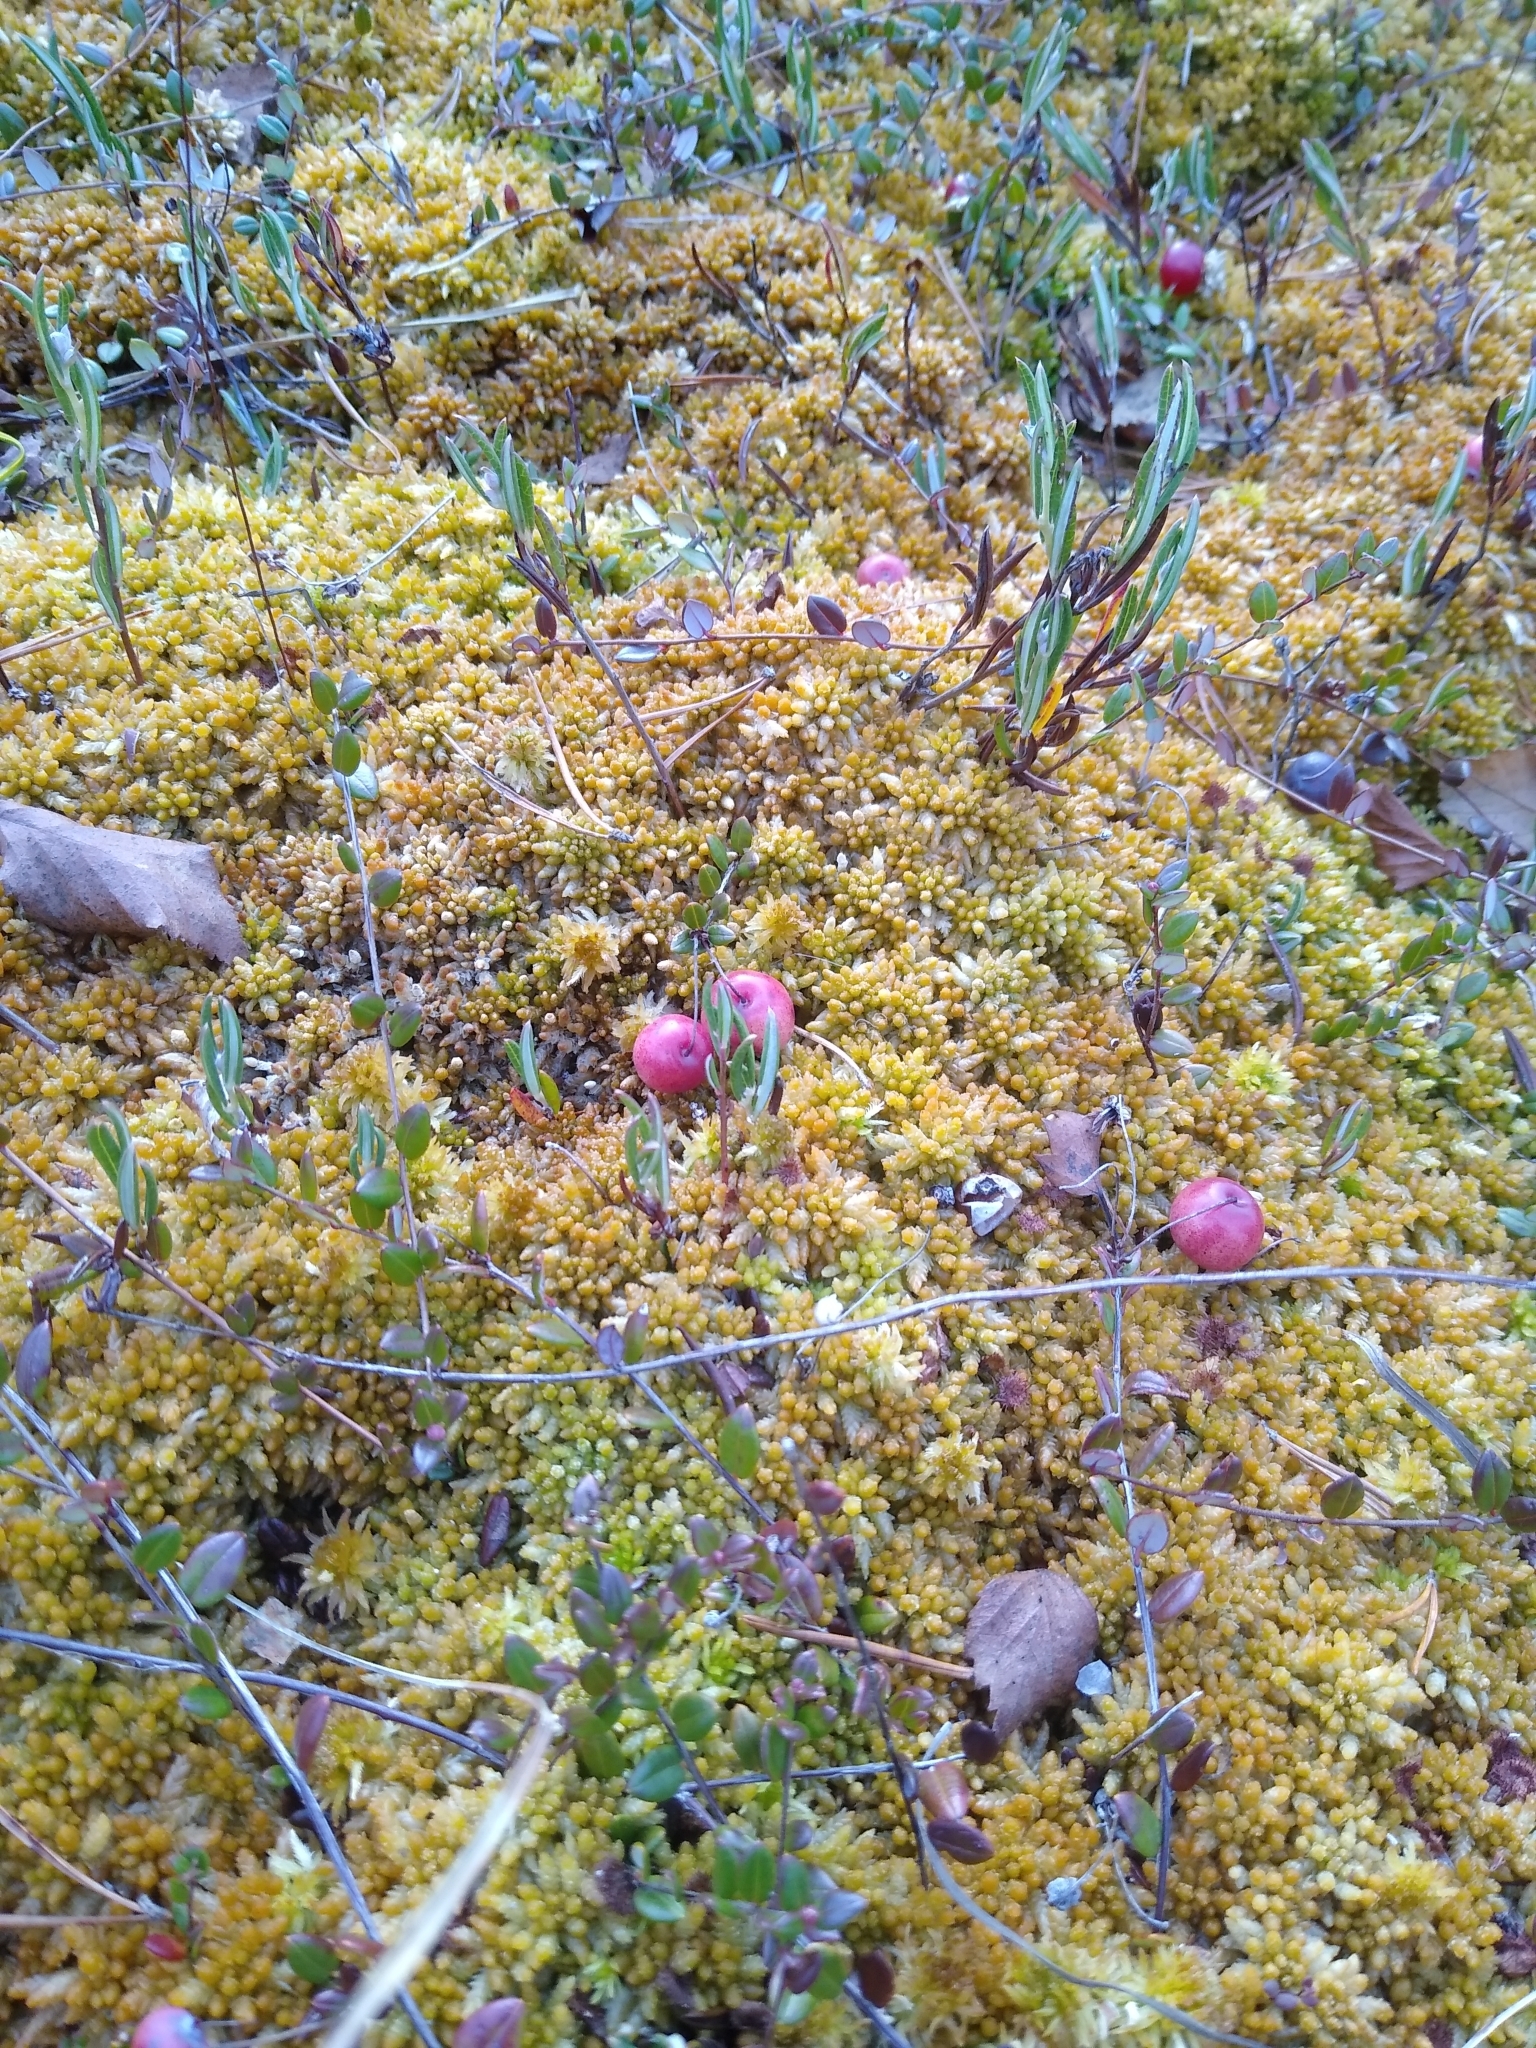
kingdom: Plantae
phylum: Tracheophyta
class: Magnoliopsida
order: Ericales
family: Ericaceae
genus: Vaccinium
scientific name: Vaccinium oxycoccos
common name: Cranberry
